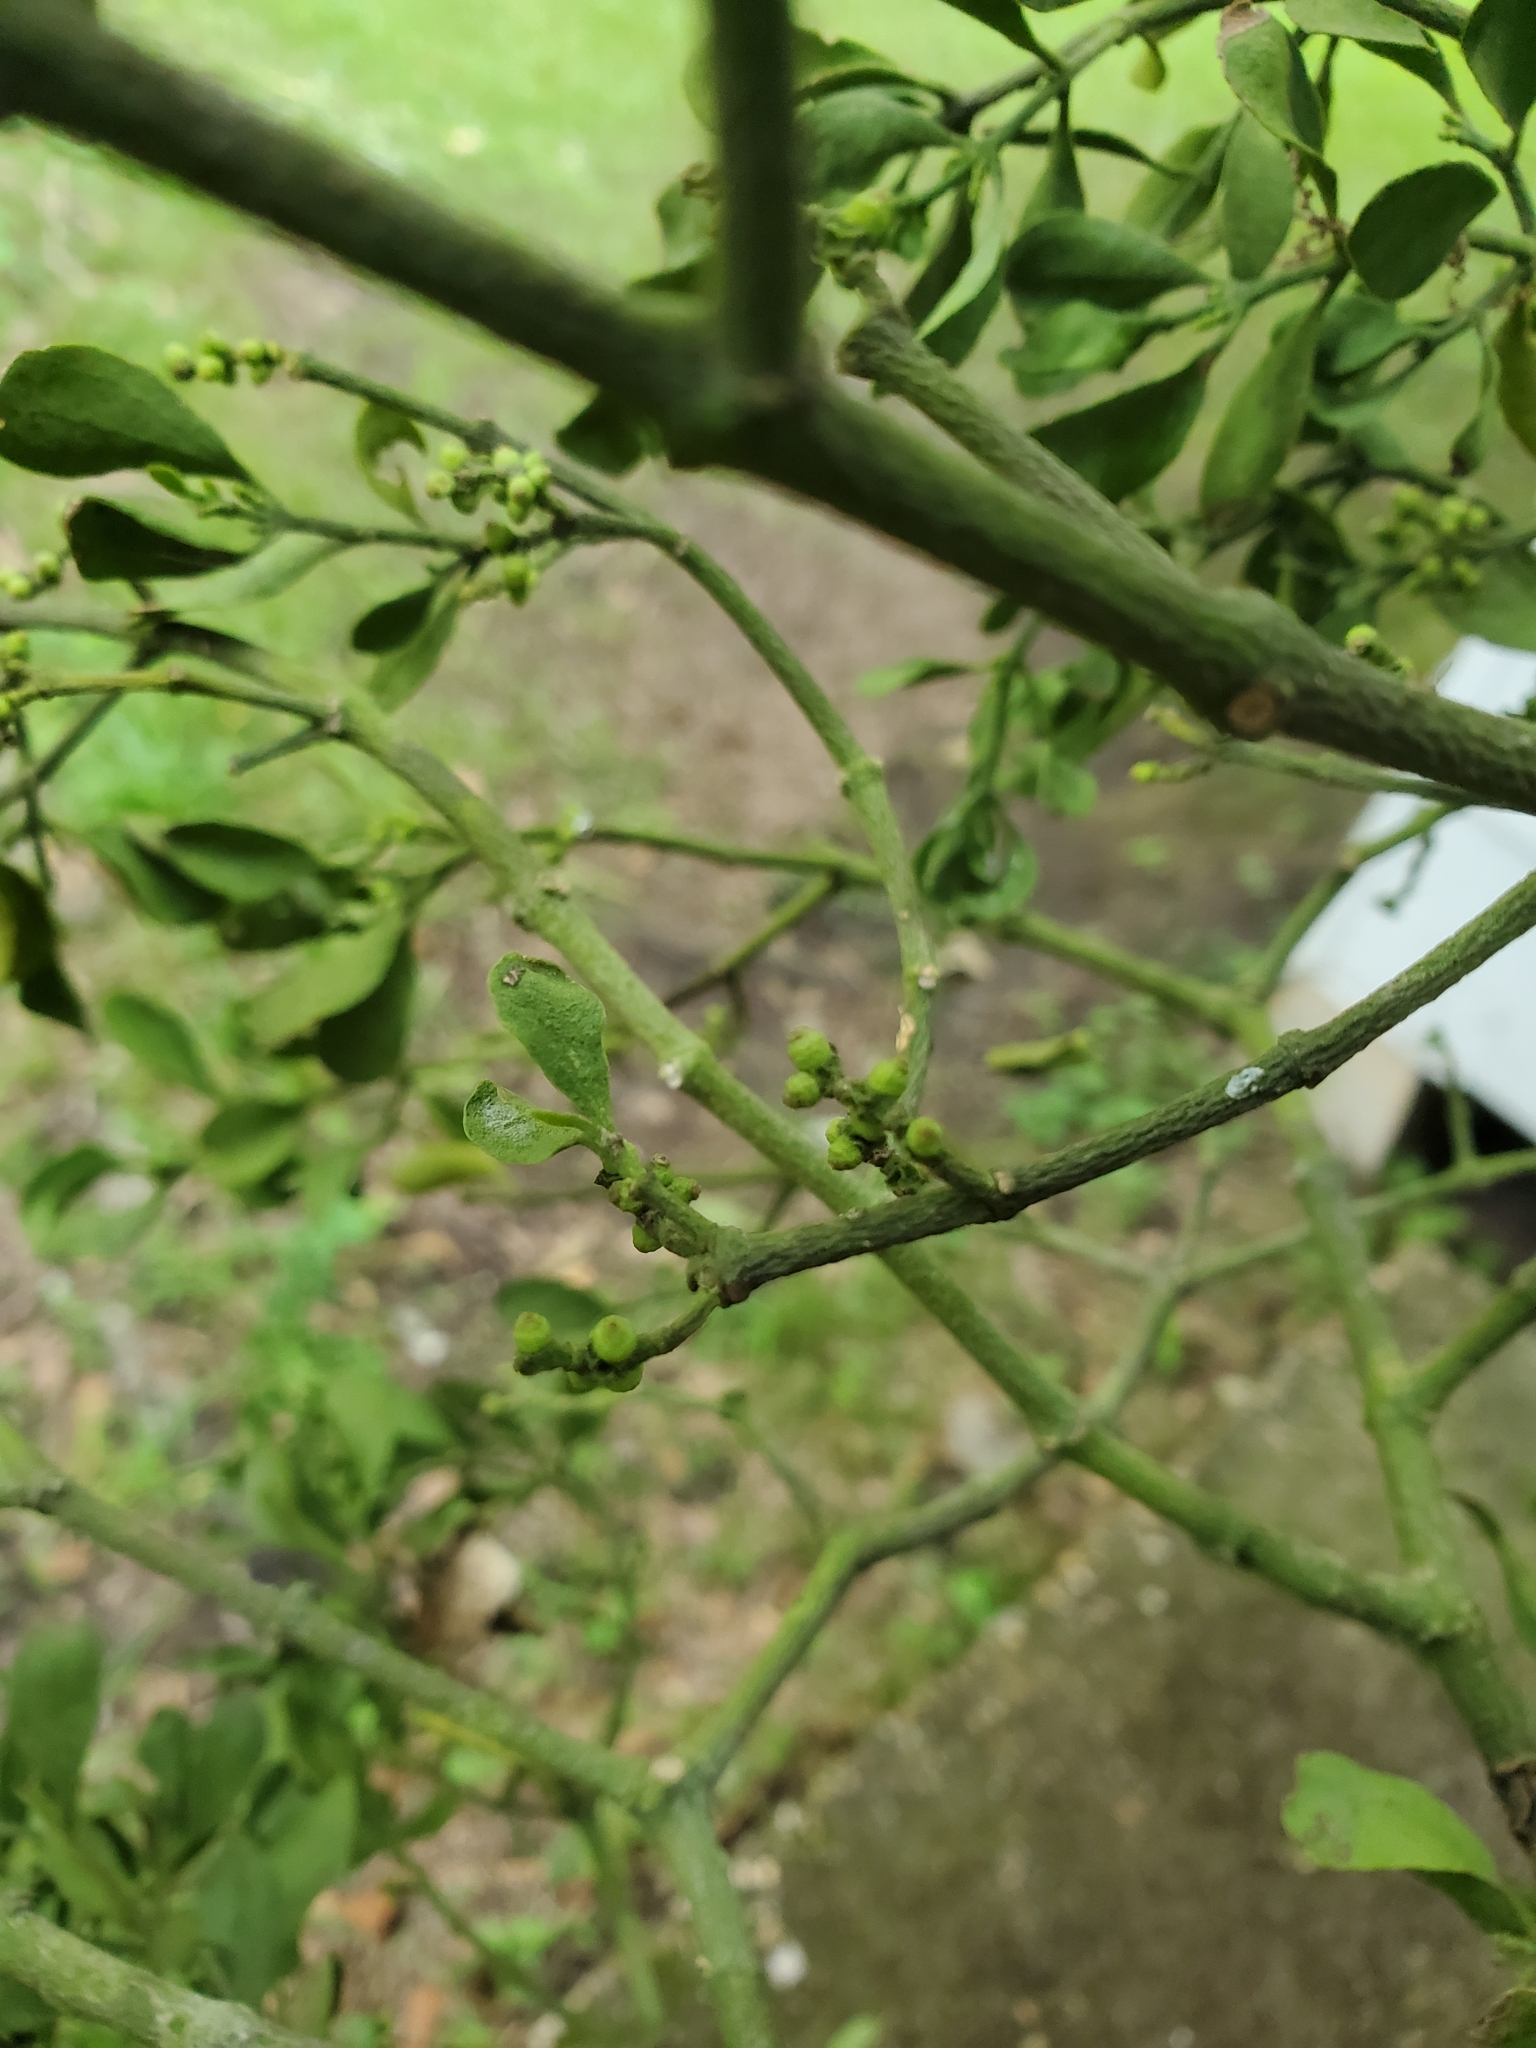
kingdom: Plantae
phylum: Tracheophyta
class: Magnoliopsida
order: Santalales
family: Viscaceae
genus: Phoradendron
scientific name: Phoradendron leucarpum
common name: Pacific mistletoe
